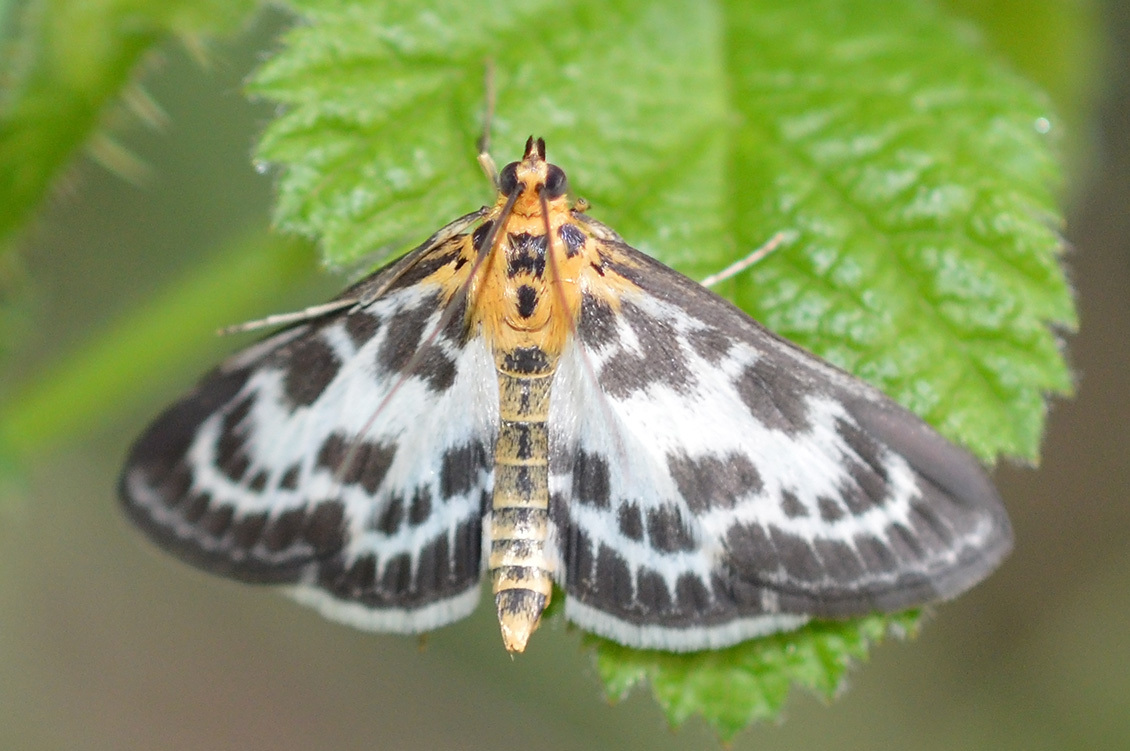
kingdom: Animalia
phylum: Arthropoda
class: Insecta
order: Lepidoptera
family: Crambidae
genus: Anania
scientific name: Anania hortulata
